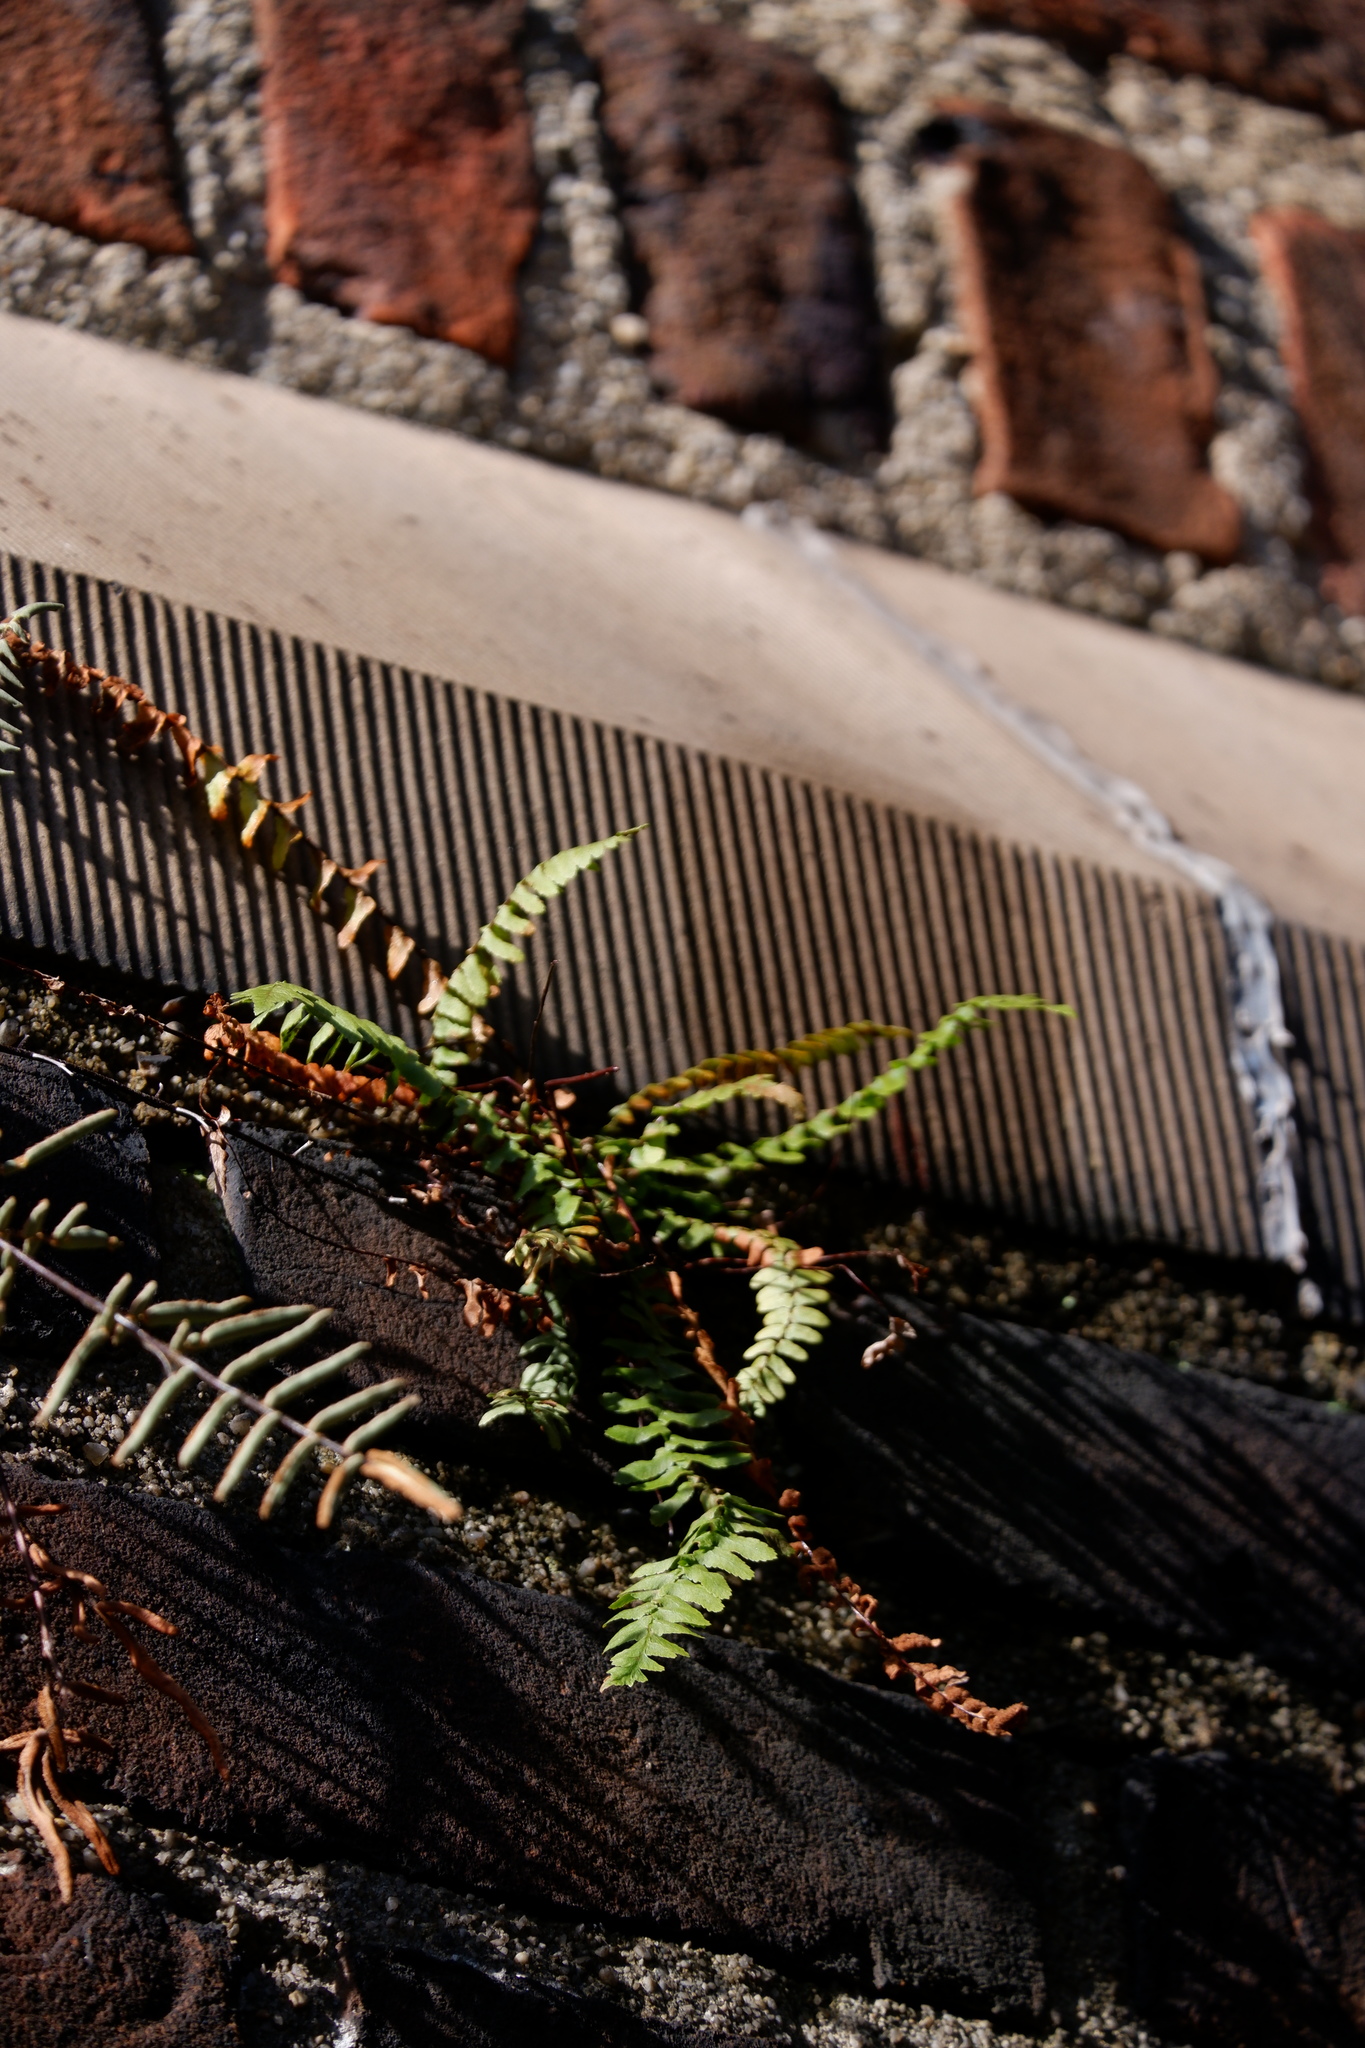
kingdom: Plantae
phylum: Tracheophyta
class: Polypodiopsida
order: Polypodiales
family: Aspleniaceae
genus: Asplenium
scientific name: Asplenium platyneuron
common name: Ebony spleenwort
